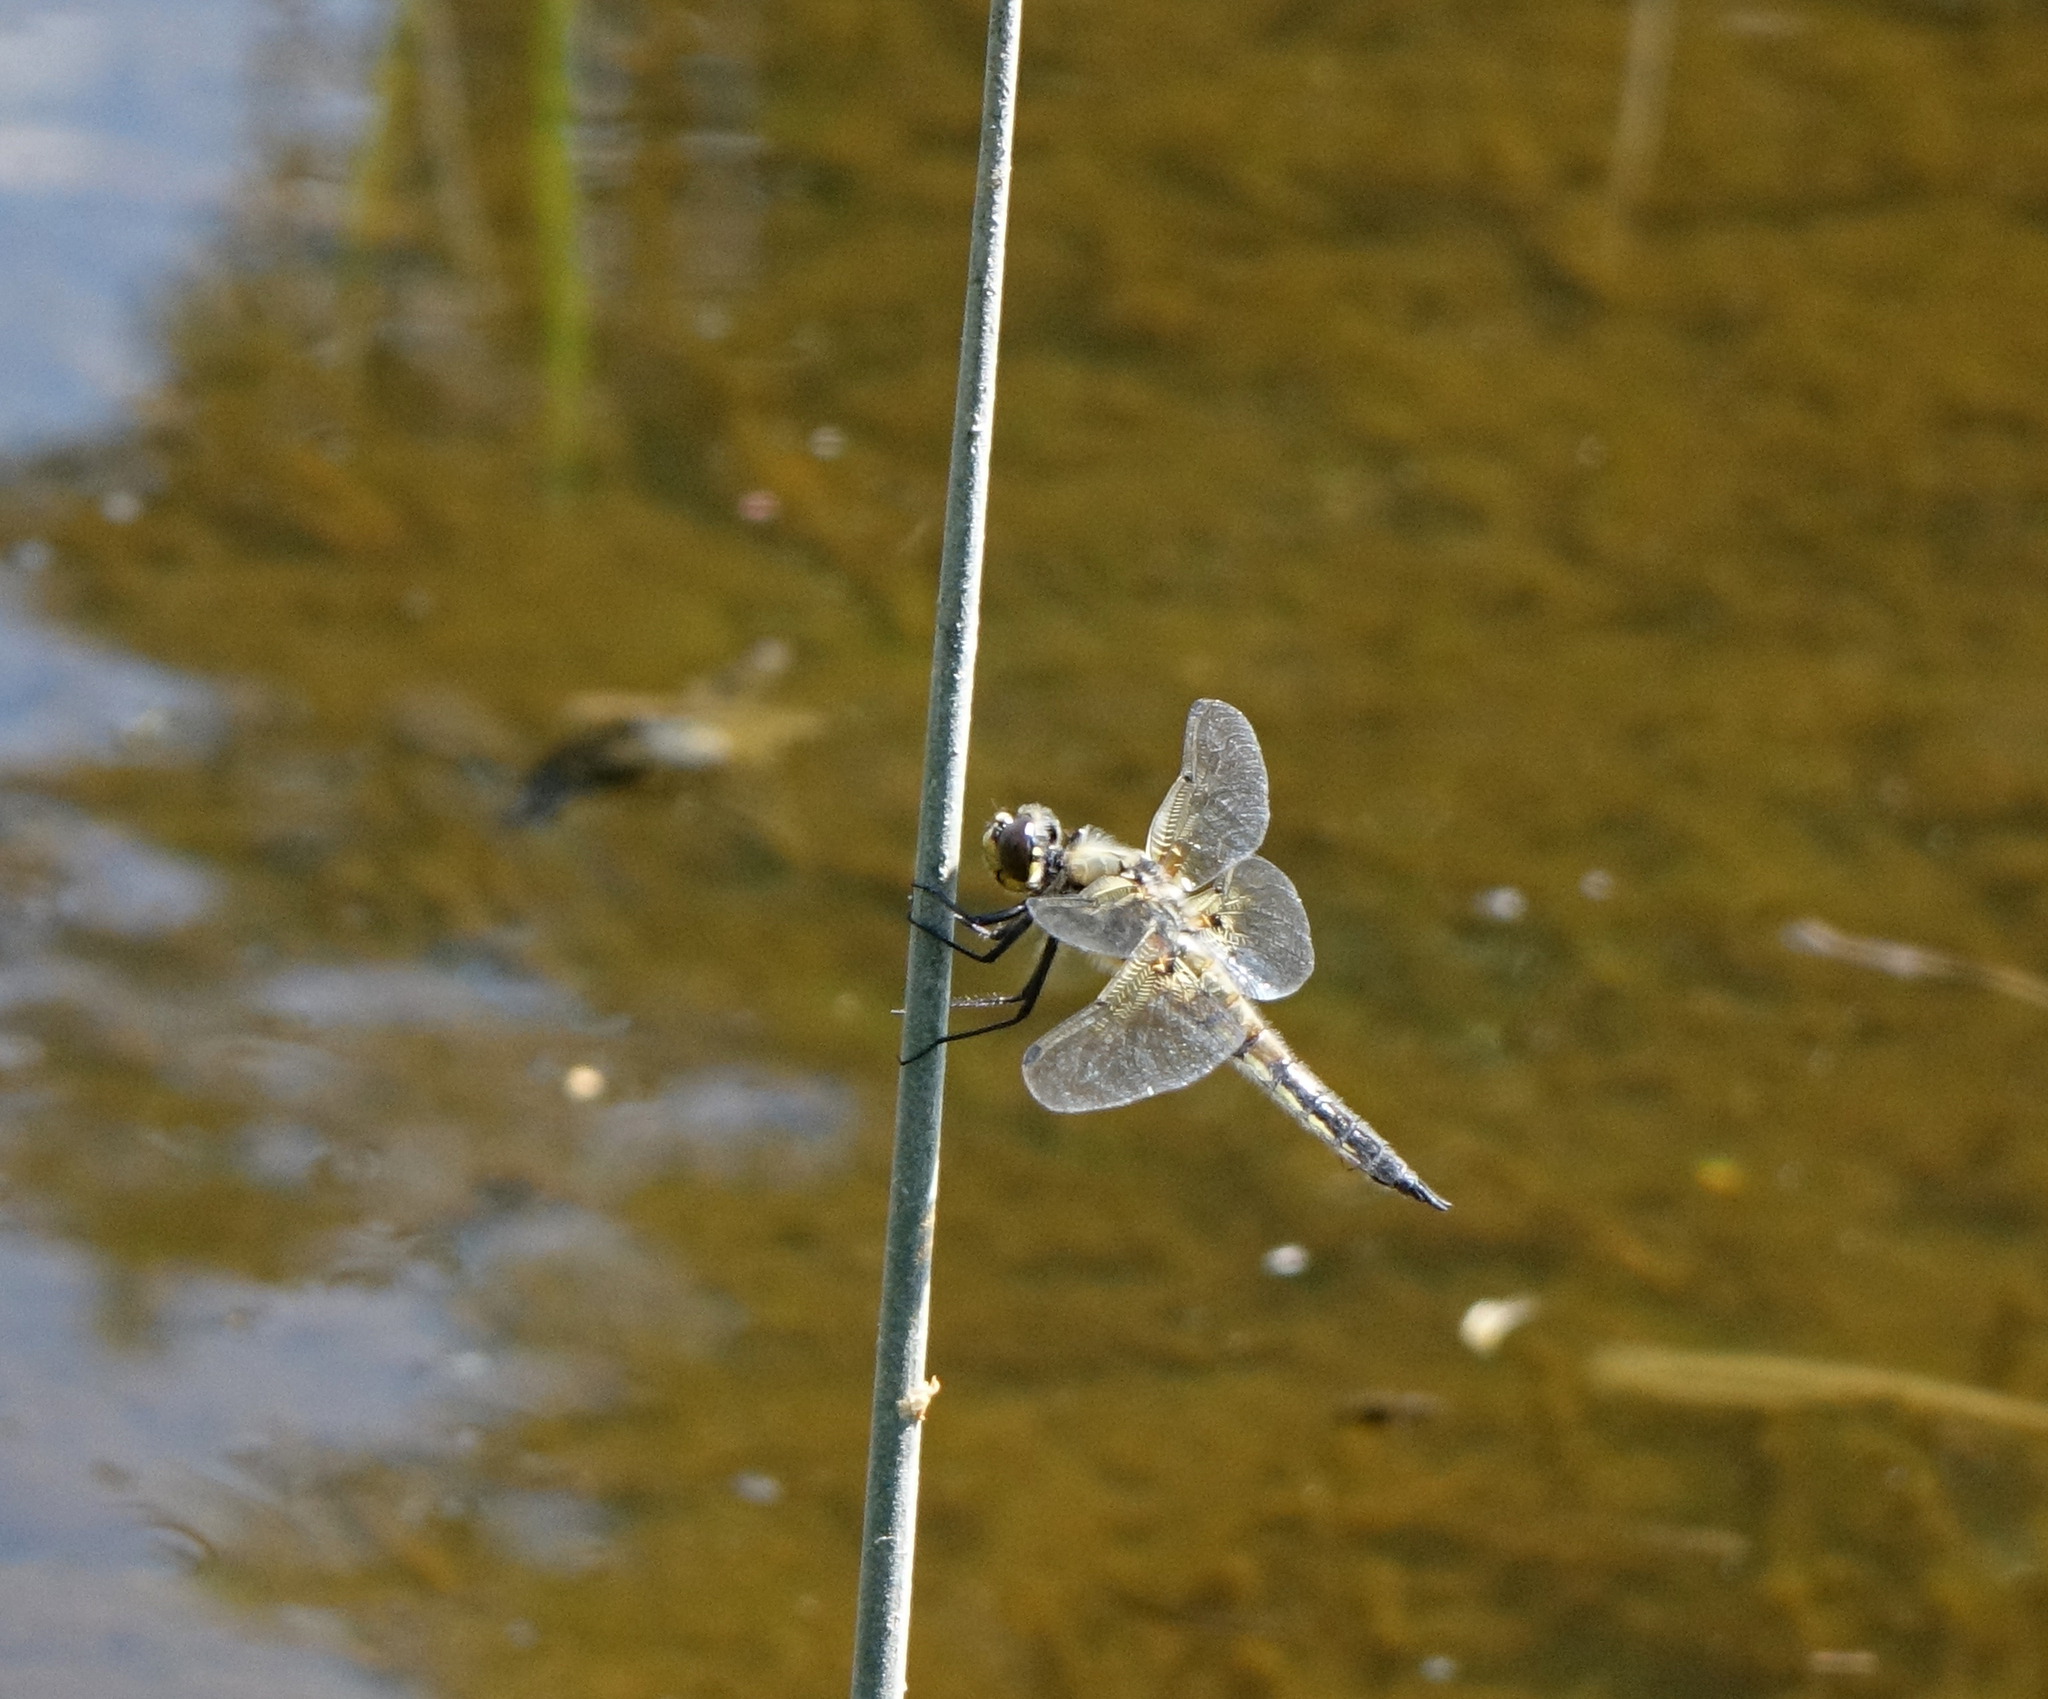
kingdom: Animalia
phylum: Arthropoda
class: Insecta
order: Odonata
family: Libellulidae
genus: Libellula
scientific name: Libellula quadrimaculata
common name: Four-spotted chaser
